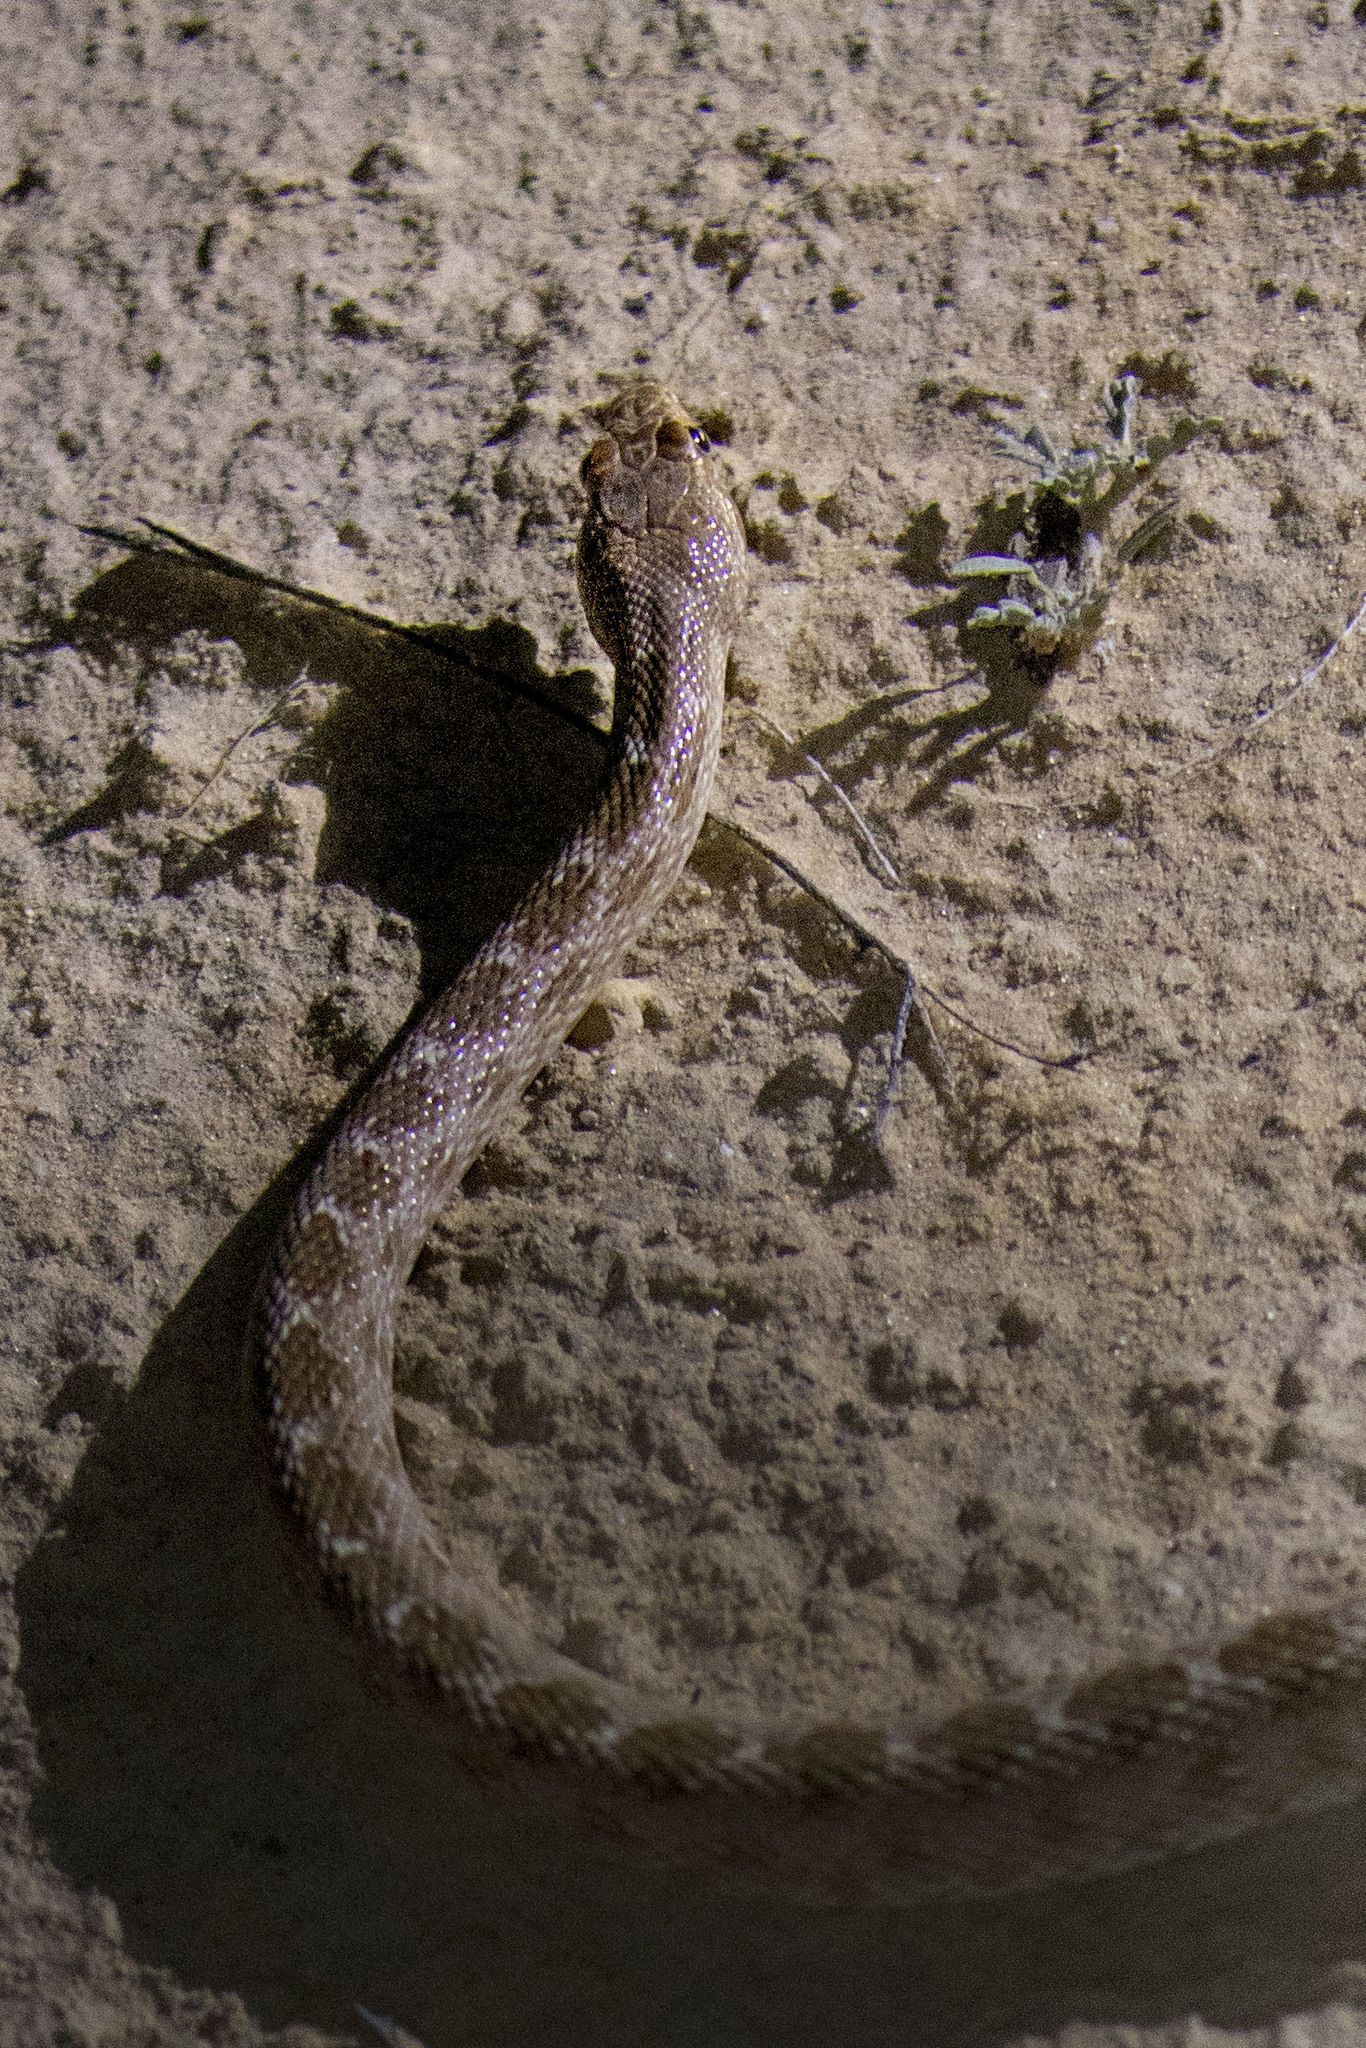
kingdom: Animalia
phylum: Chordata
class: Squamata
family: Colubridae
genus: Spalerosophis
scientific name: Spalerosophis diadema
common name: Diadem snake
